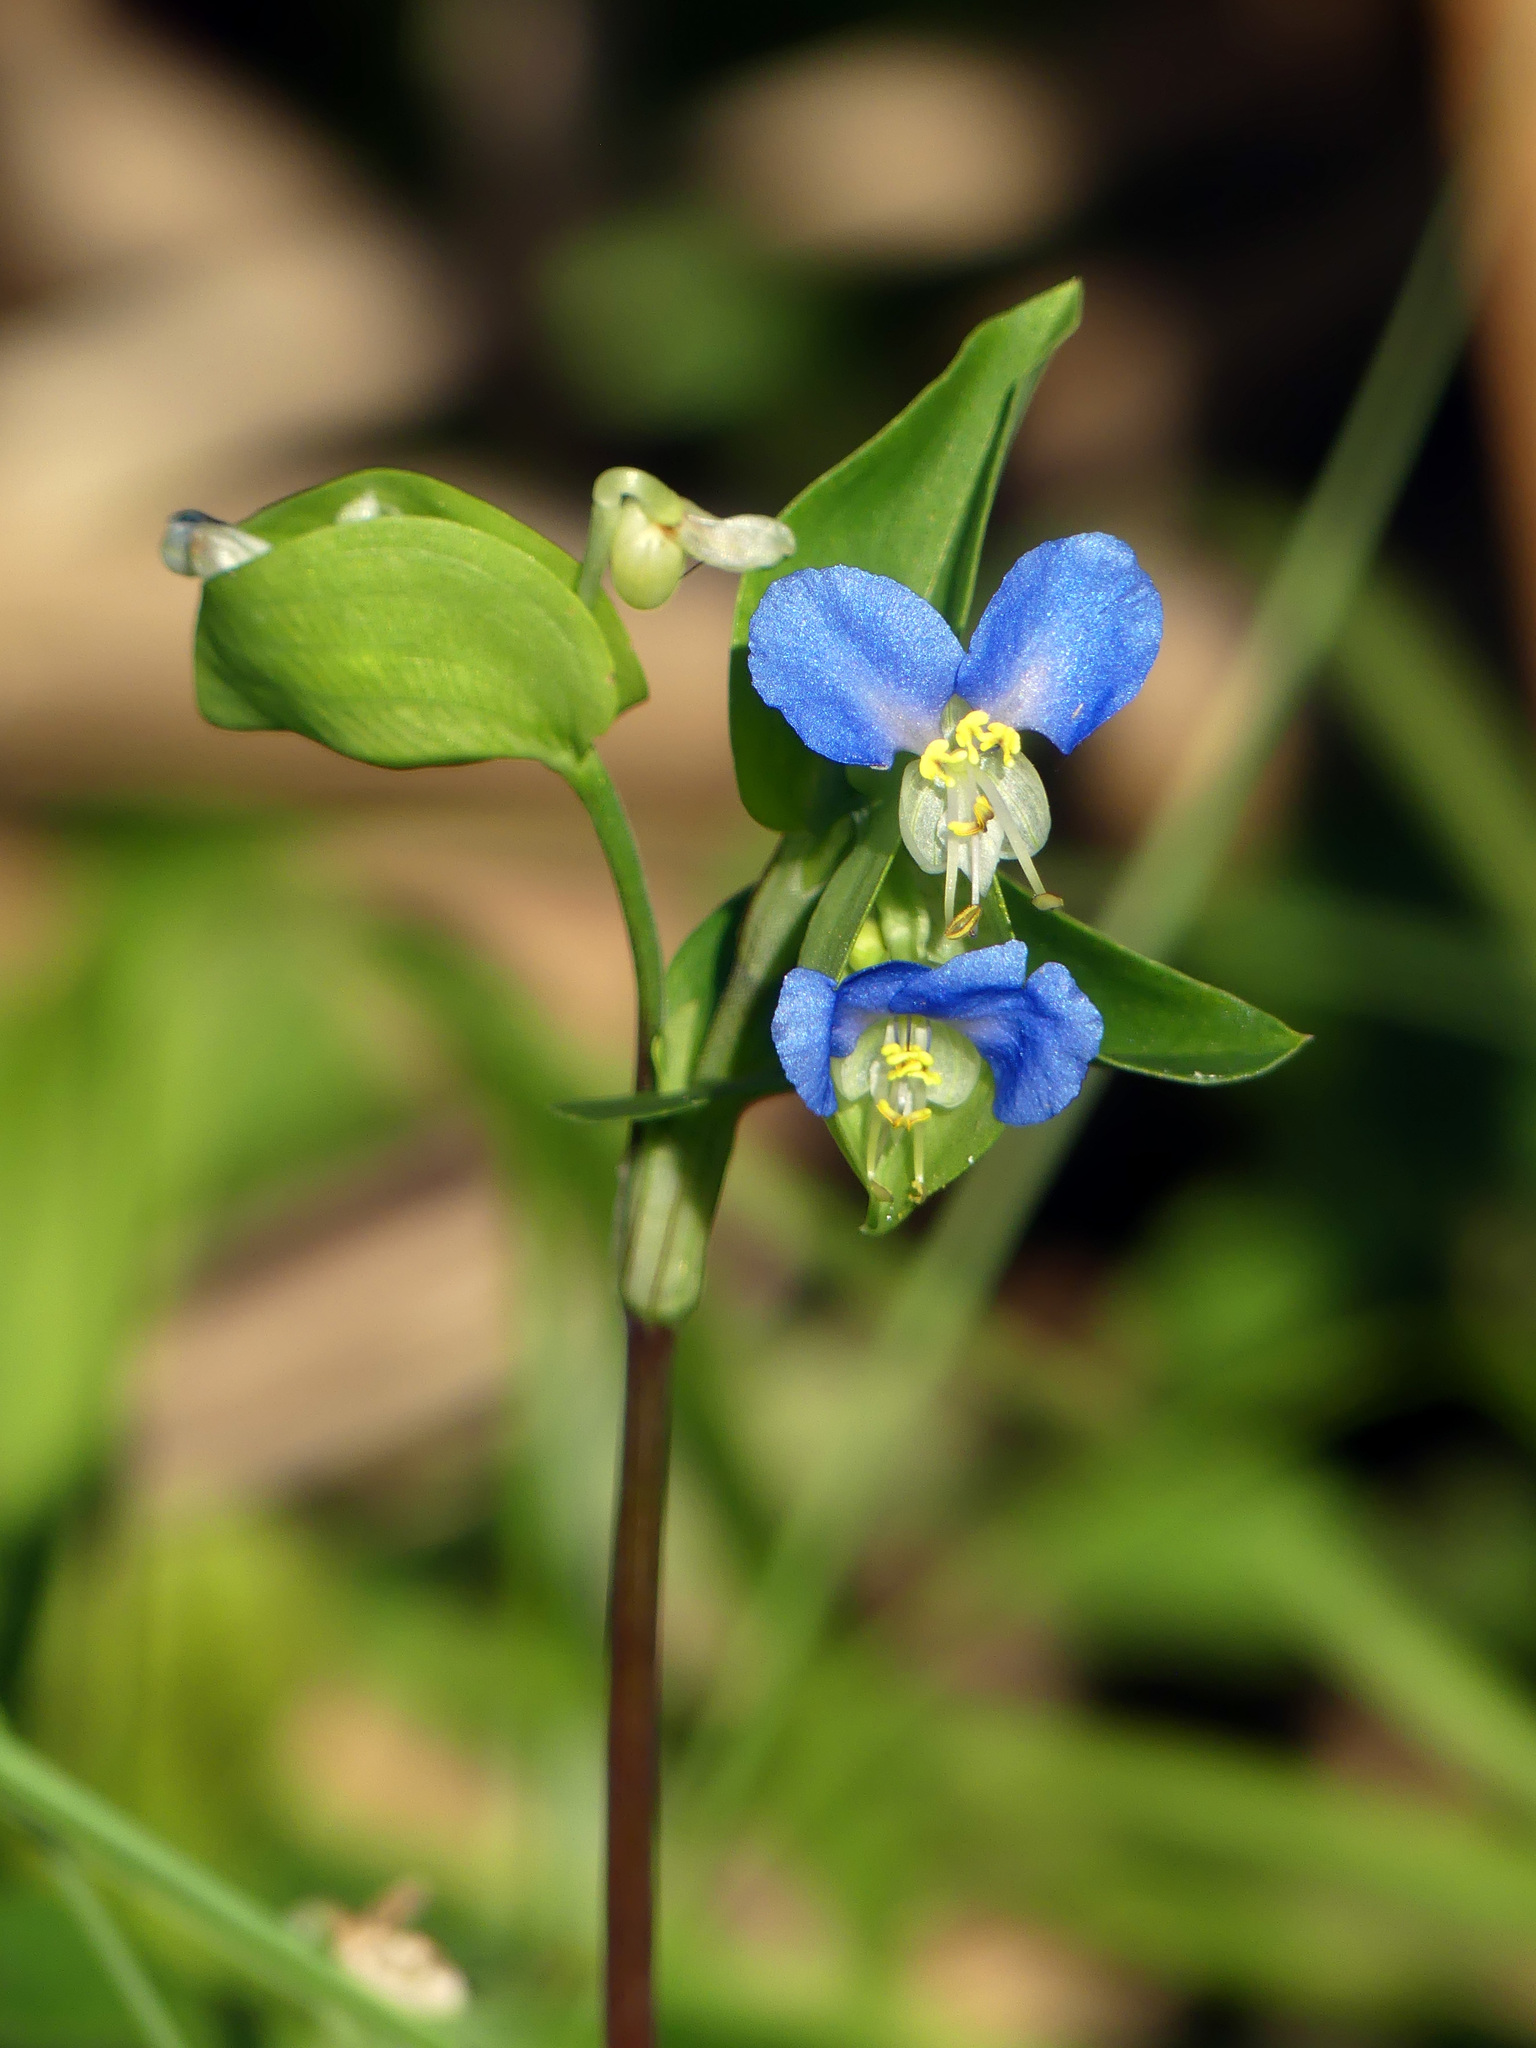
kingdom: Plantae
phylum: Tracheophyta
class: Liliopsida
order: Commelinales
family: Commelinaceae
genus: Commelina
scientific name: Commelina communis
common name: Asiatic dayflower
